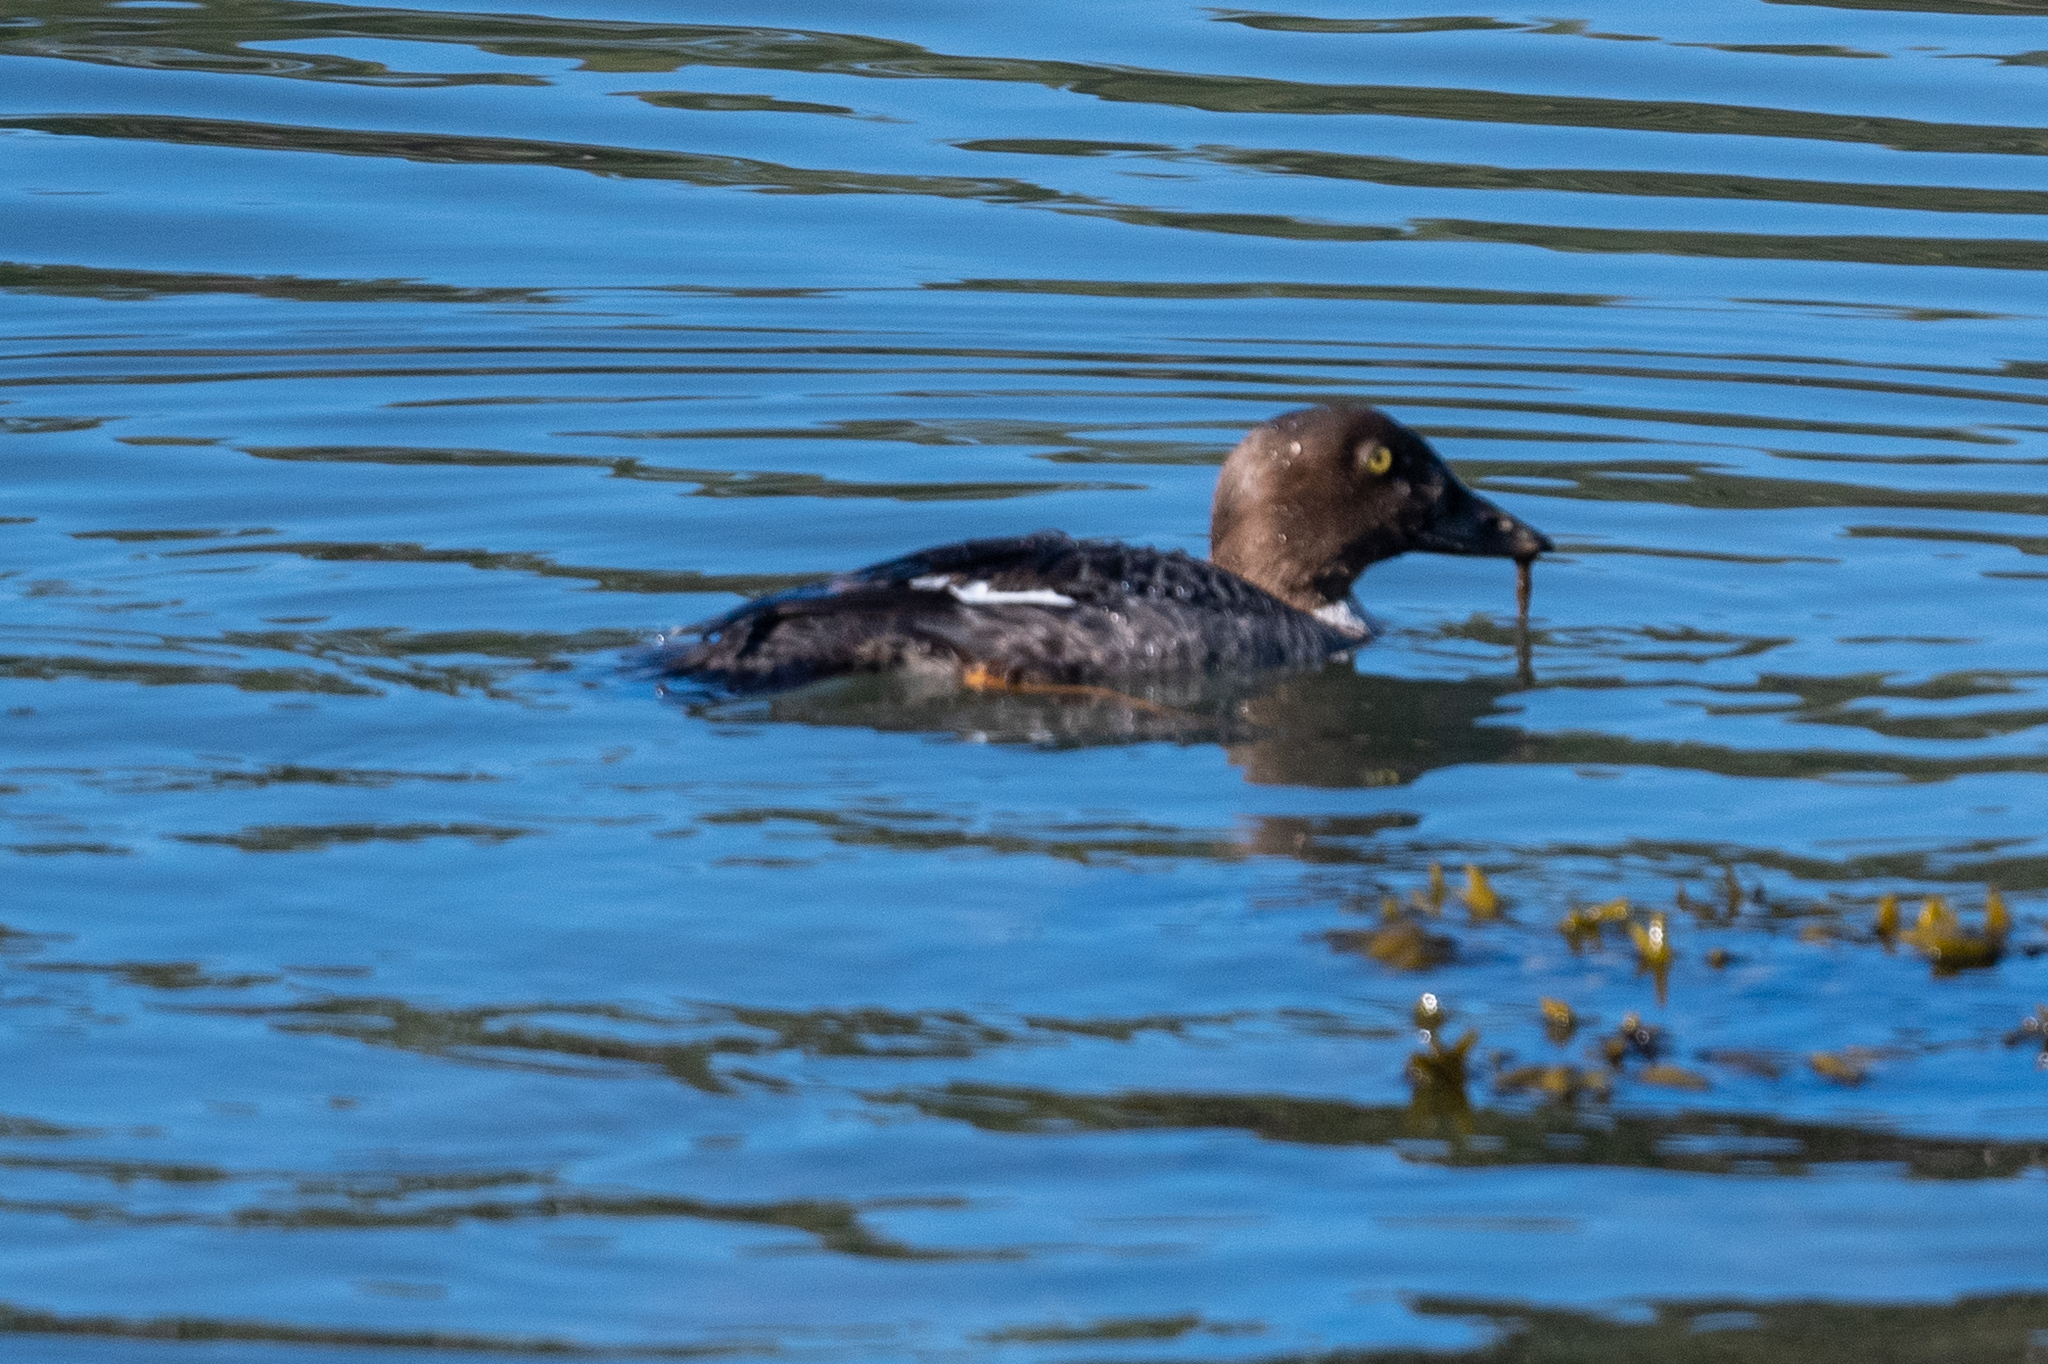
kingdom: Animalia
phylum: Chordata
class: Aves
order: Anseriformes
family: Anatidae
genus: Bucephala
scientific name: Bucephala clangula
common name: Common goldeneye
